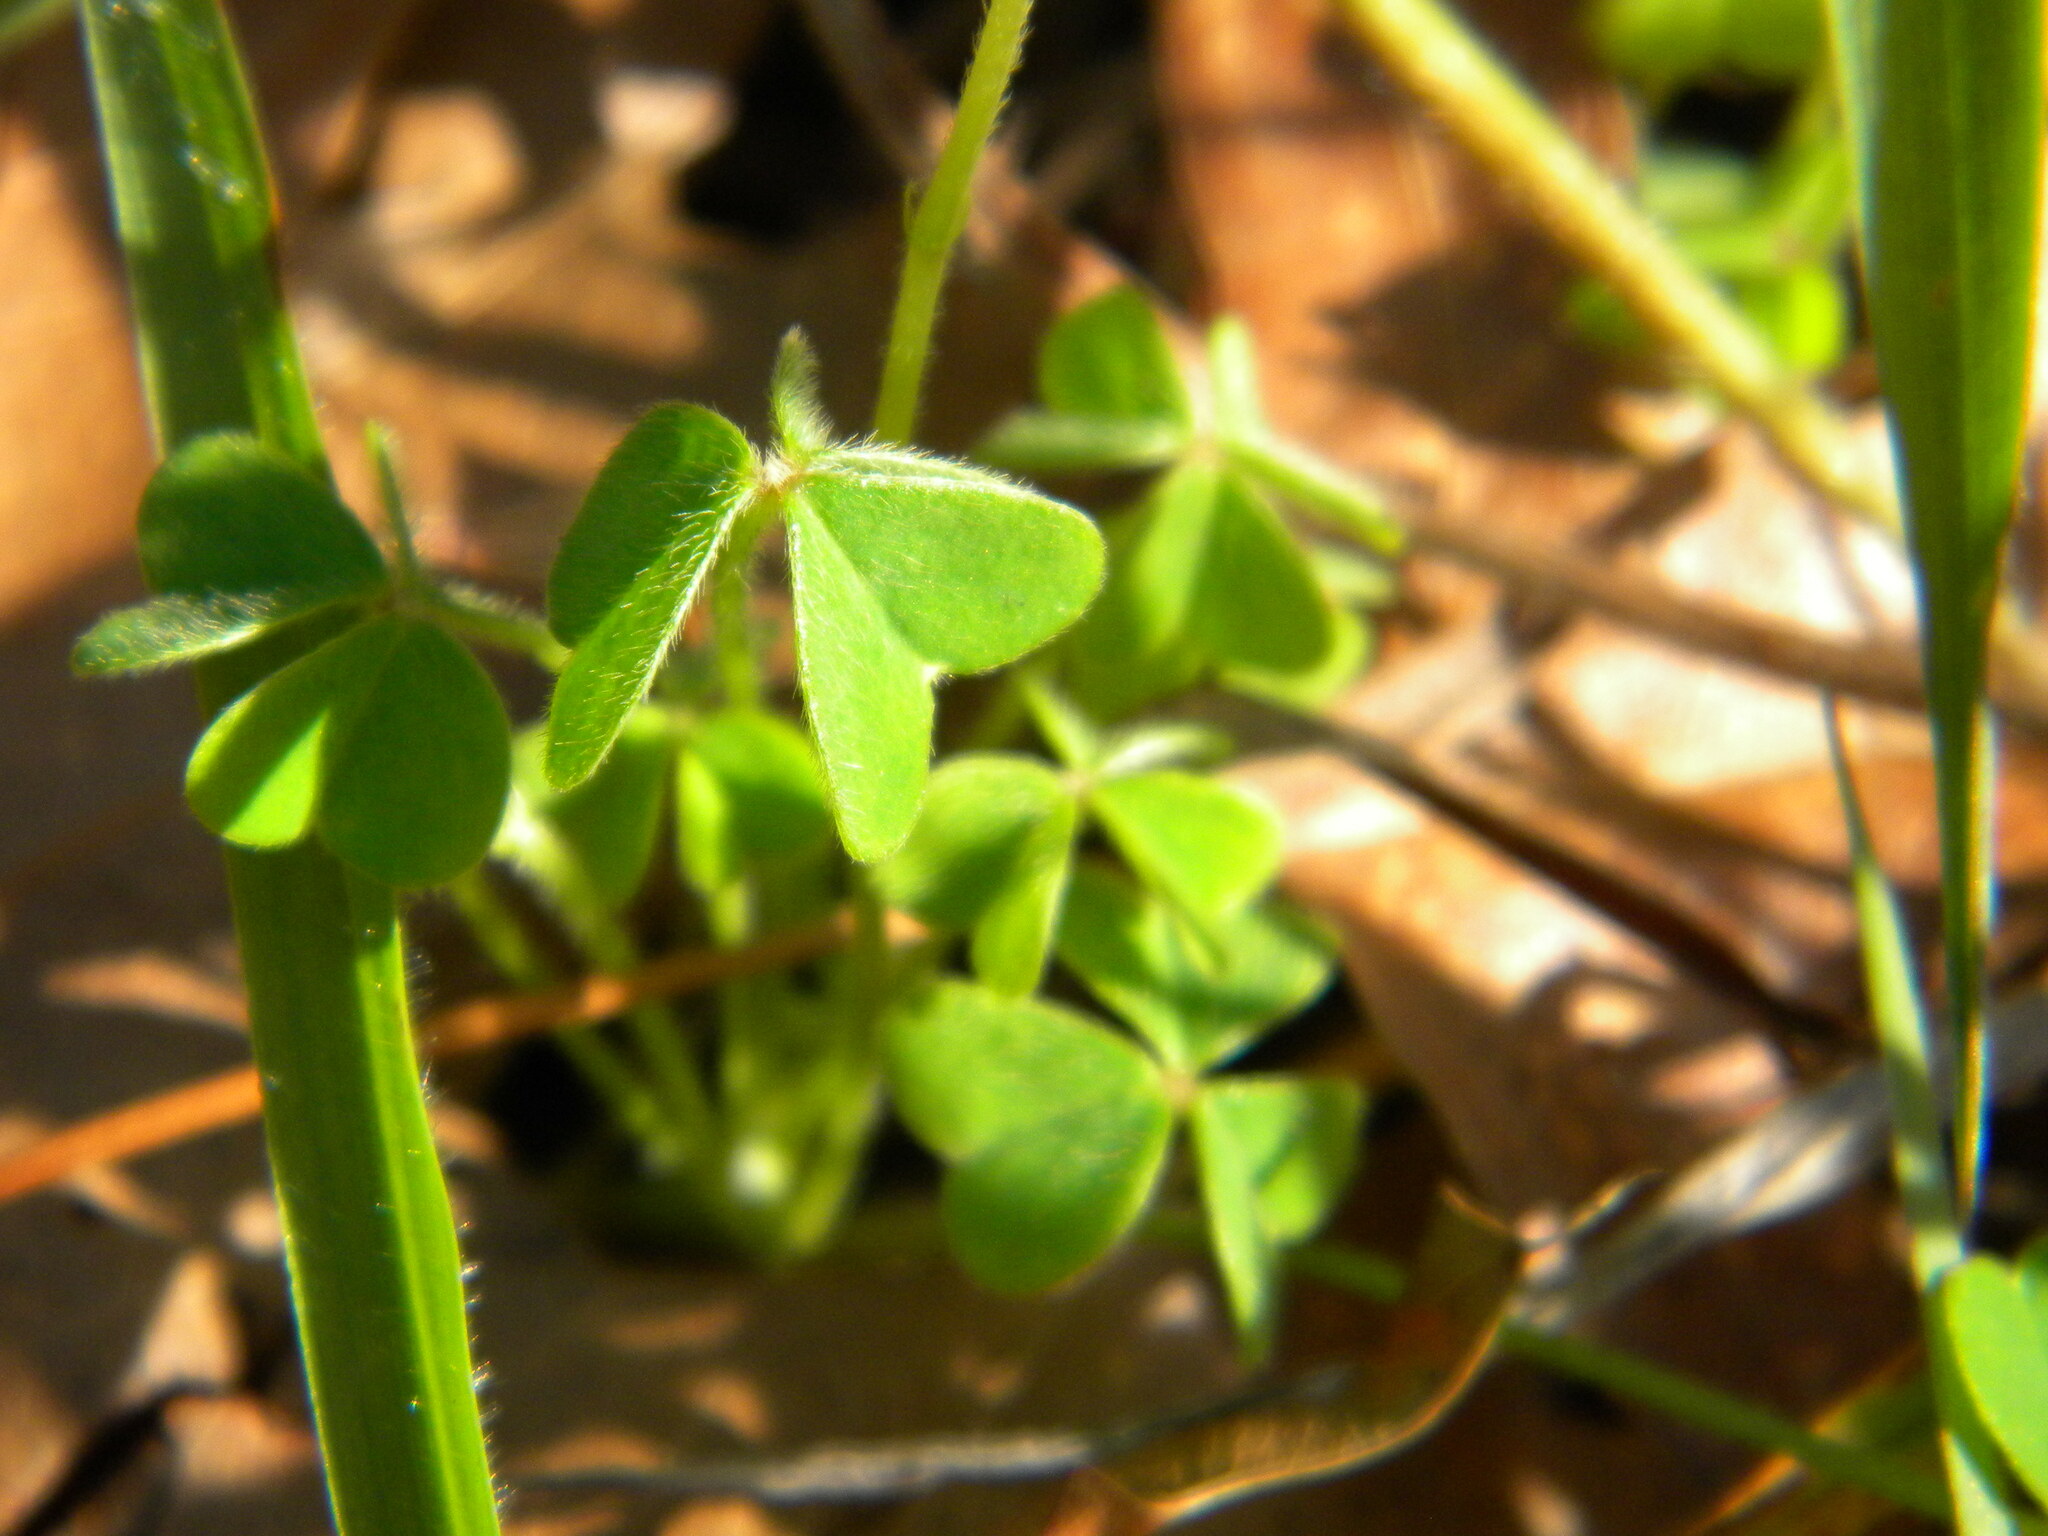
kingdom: Plantae
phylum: Tracheophyta
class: Magnoliopsida
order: Oxalidales
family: Oxalidaceae
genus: Oxalis
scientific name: Oxalis lanata
